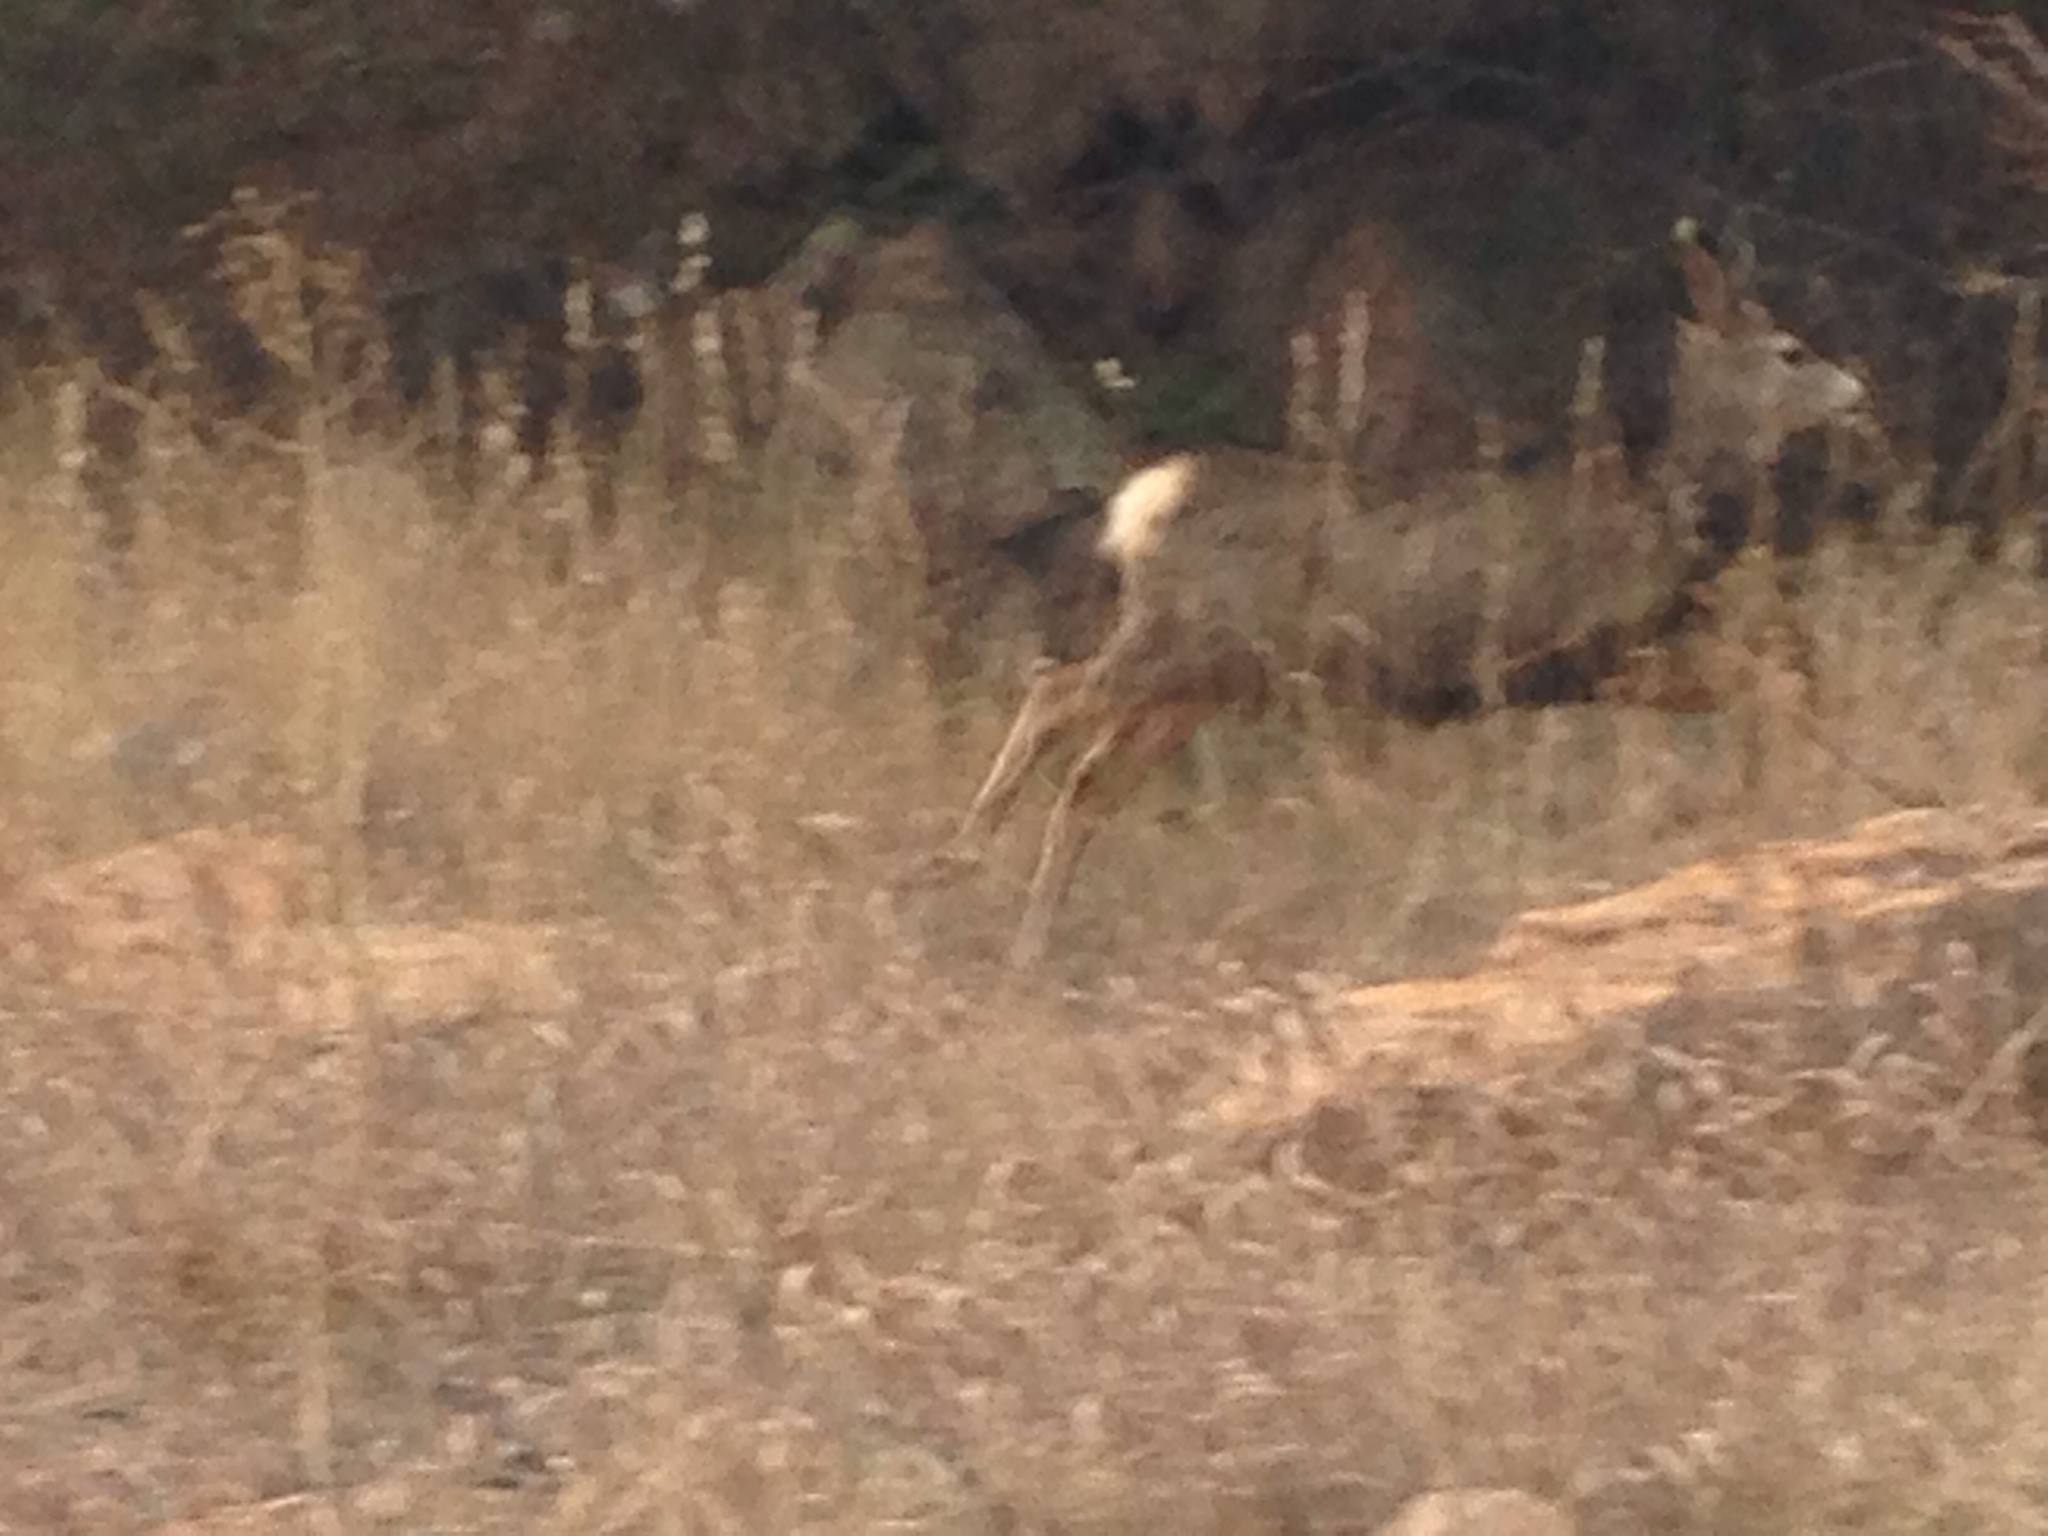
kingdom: Animalia
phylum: Chordata
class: Mammalia
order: Artiodactyla
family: Cervidae
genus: Odocoileus
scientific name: Odocoileus hemionus
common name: Mule deer
